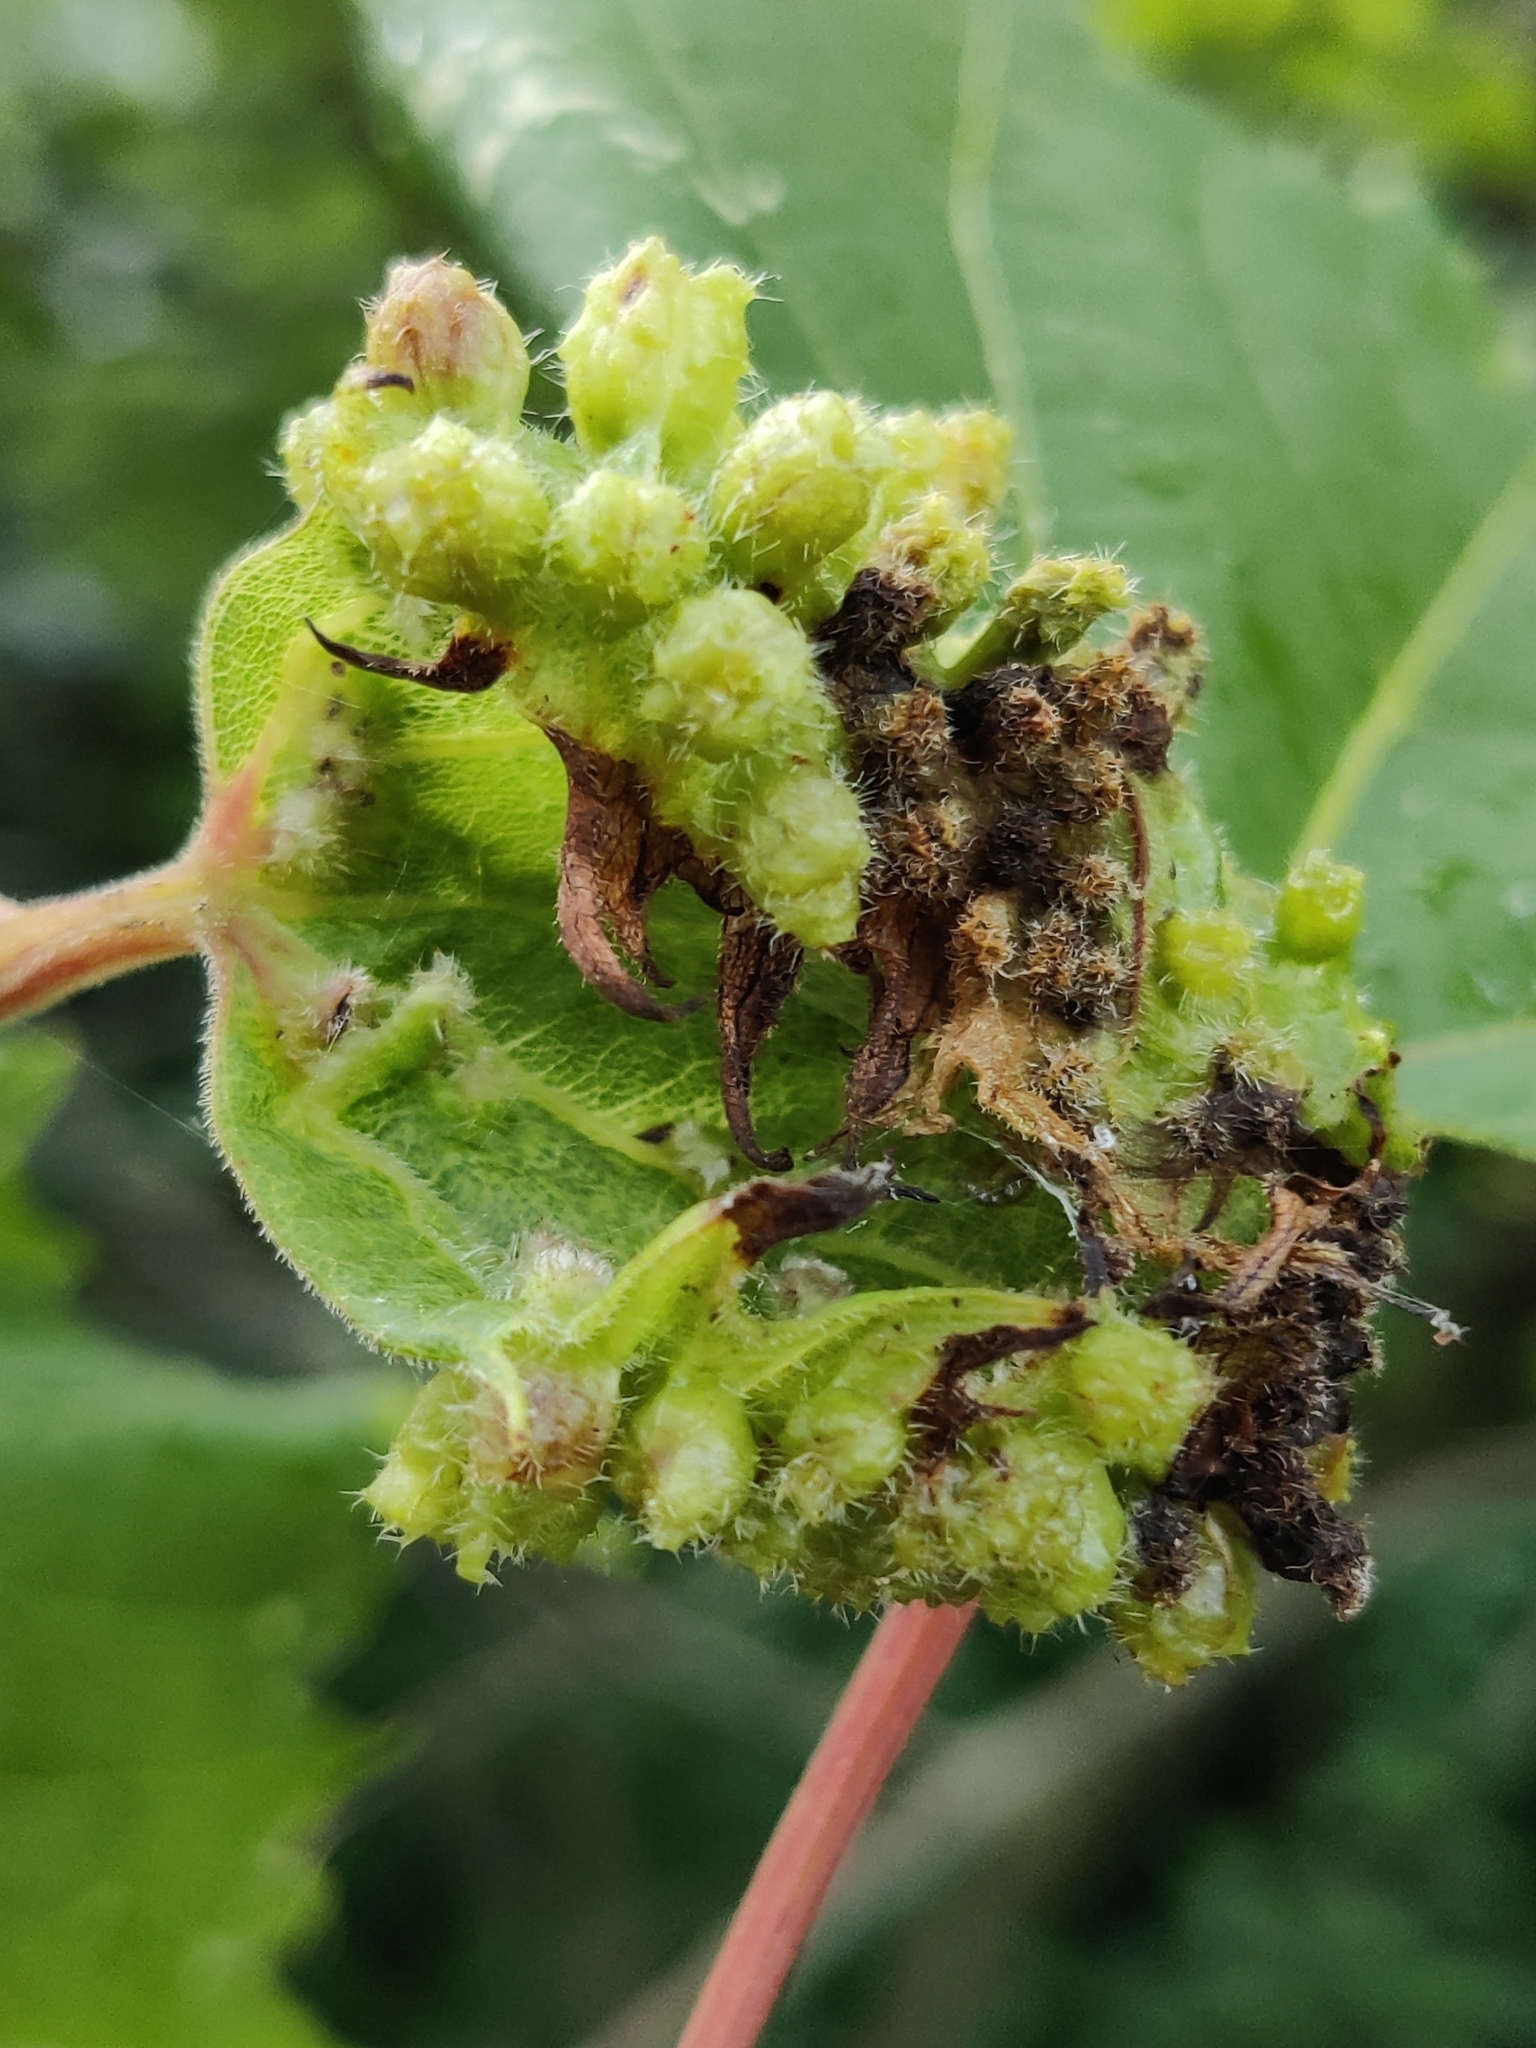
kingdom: Animalia
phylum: Arthropoda
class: Insecta
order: Hemiptera
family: Phylloxeridae
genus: Daktulosphaira
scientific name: Daktulosphaira vitifoliae
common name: Grape phylloxera
